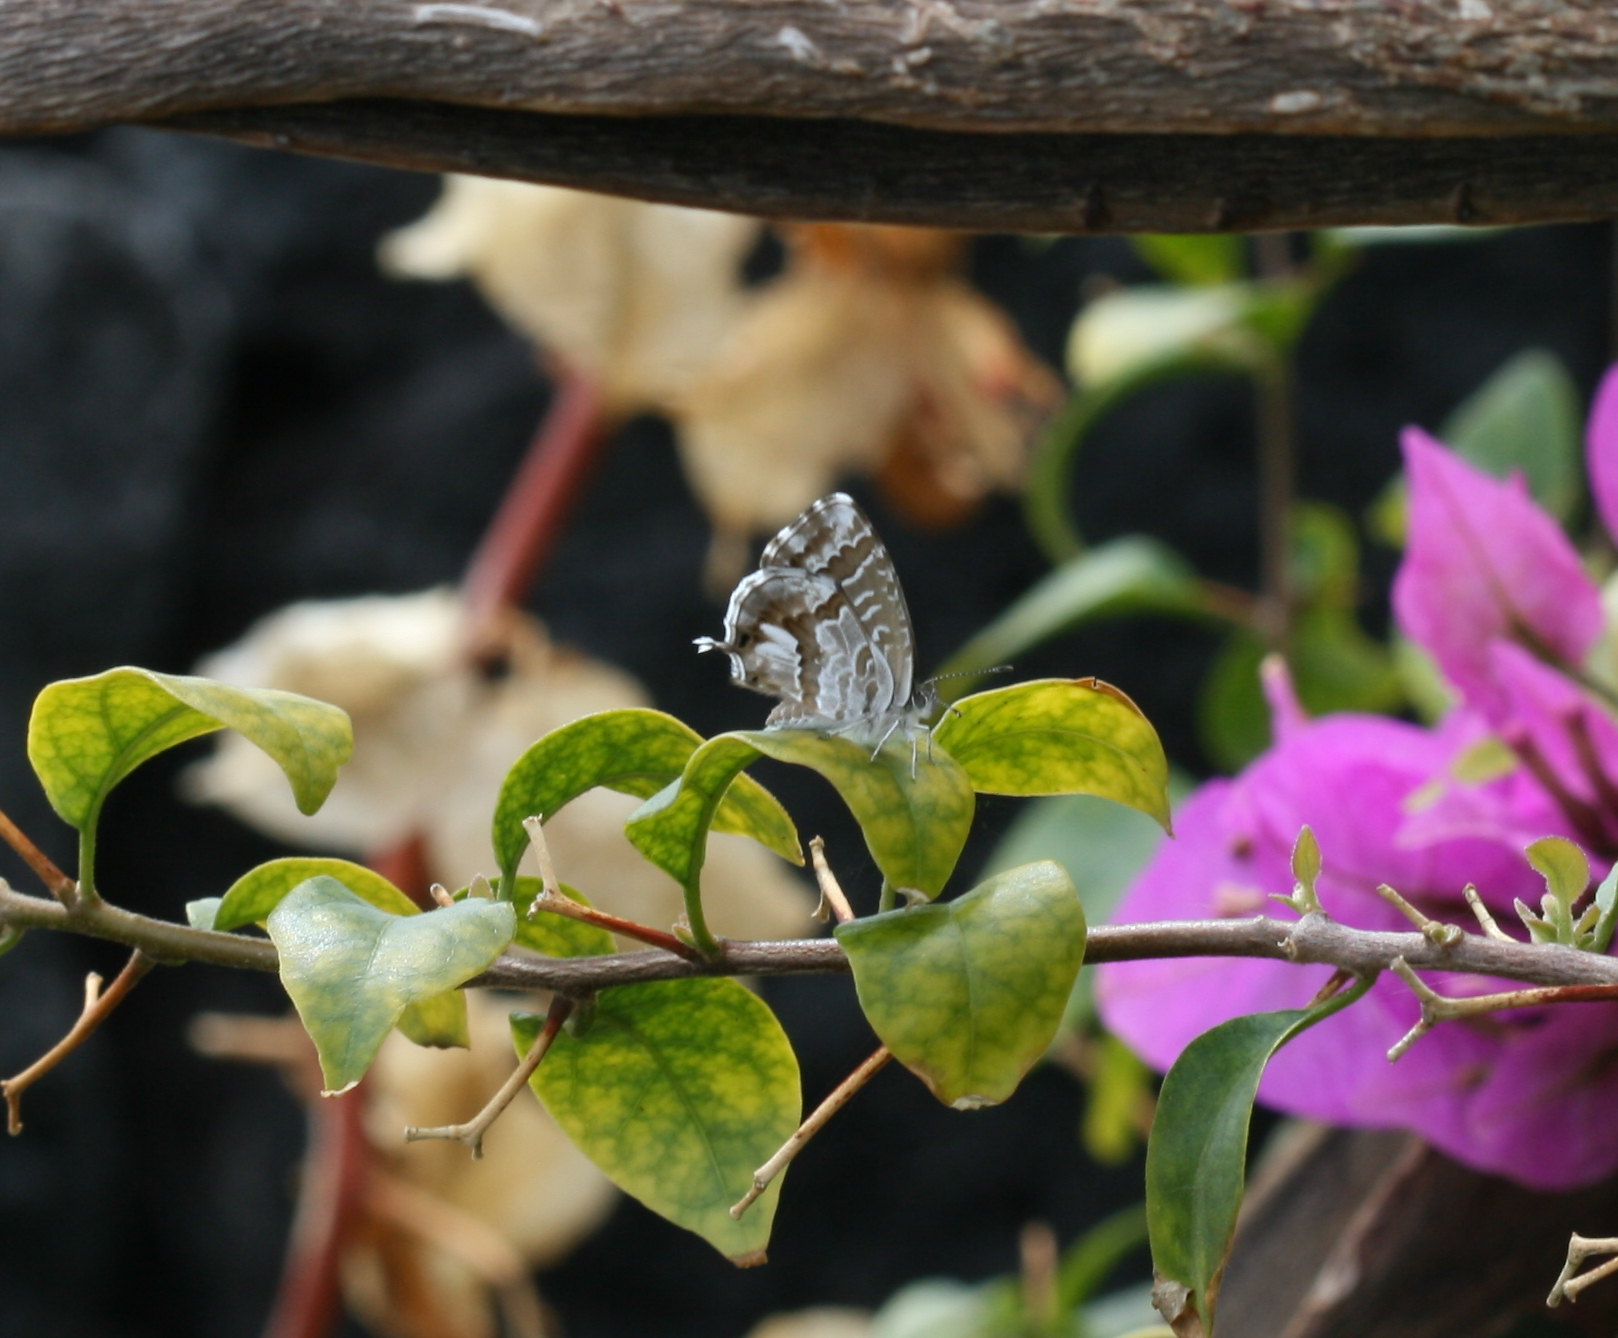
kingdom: Animalia
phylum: Arthropoda
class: Insecta
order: Lepidoptera
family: Lycaenidae
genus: Cacyreus
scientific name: Cacyreus marshalli
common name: Geranium bronze
